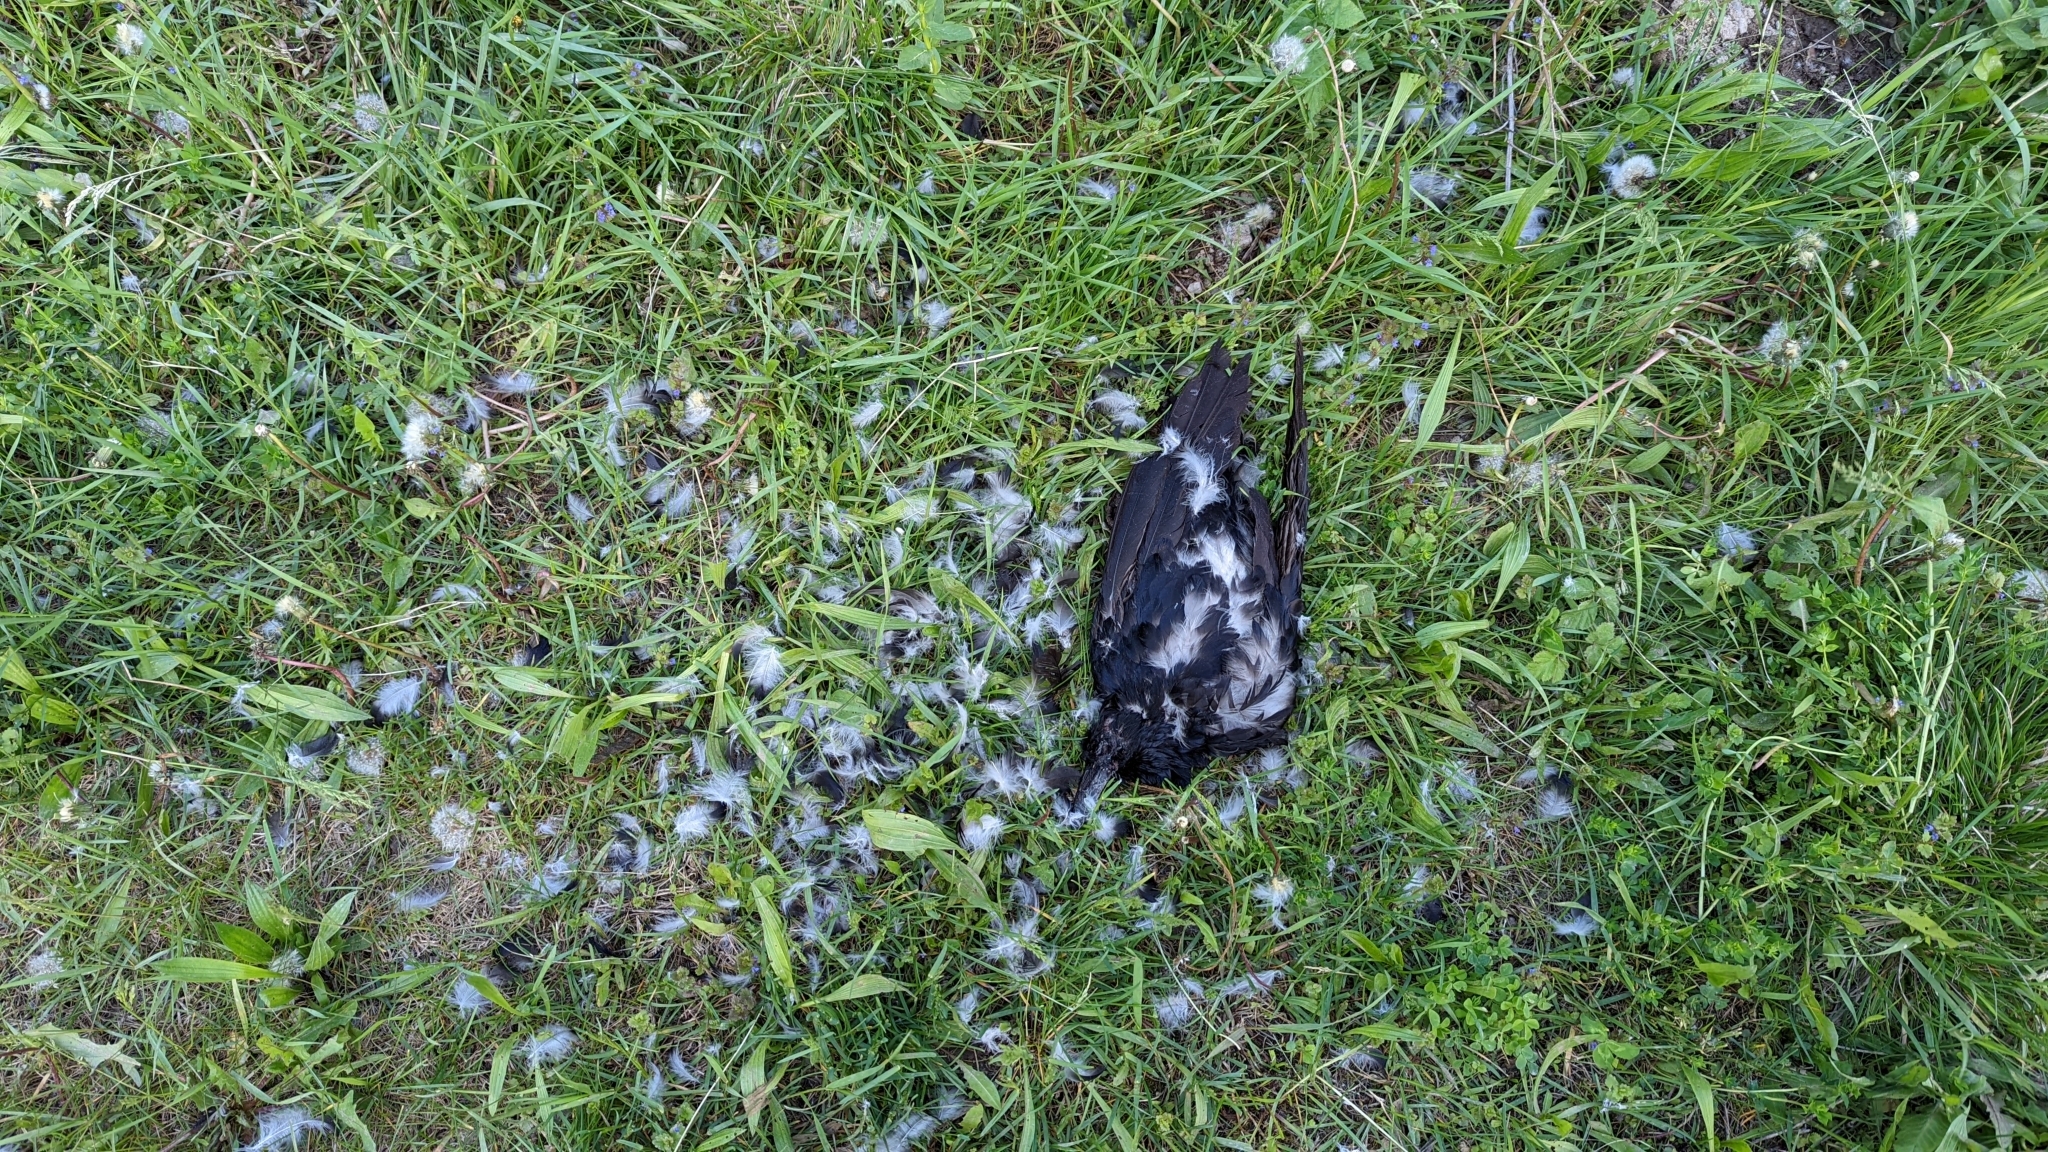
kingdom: Animalia
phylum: Chordata
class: Aves
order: Passeriformes
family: Corvidae
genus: Corvus
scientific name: Corvus corone
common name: Carrion crow
